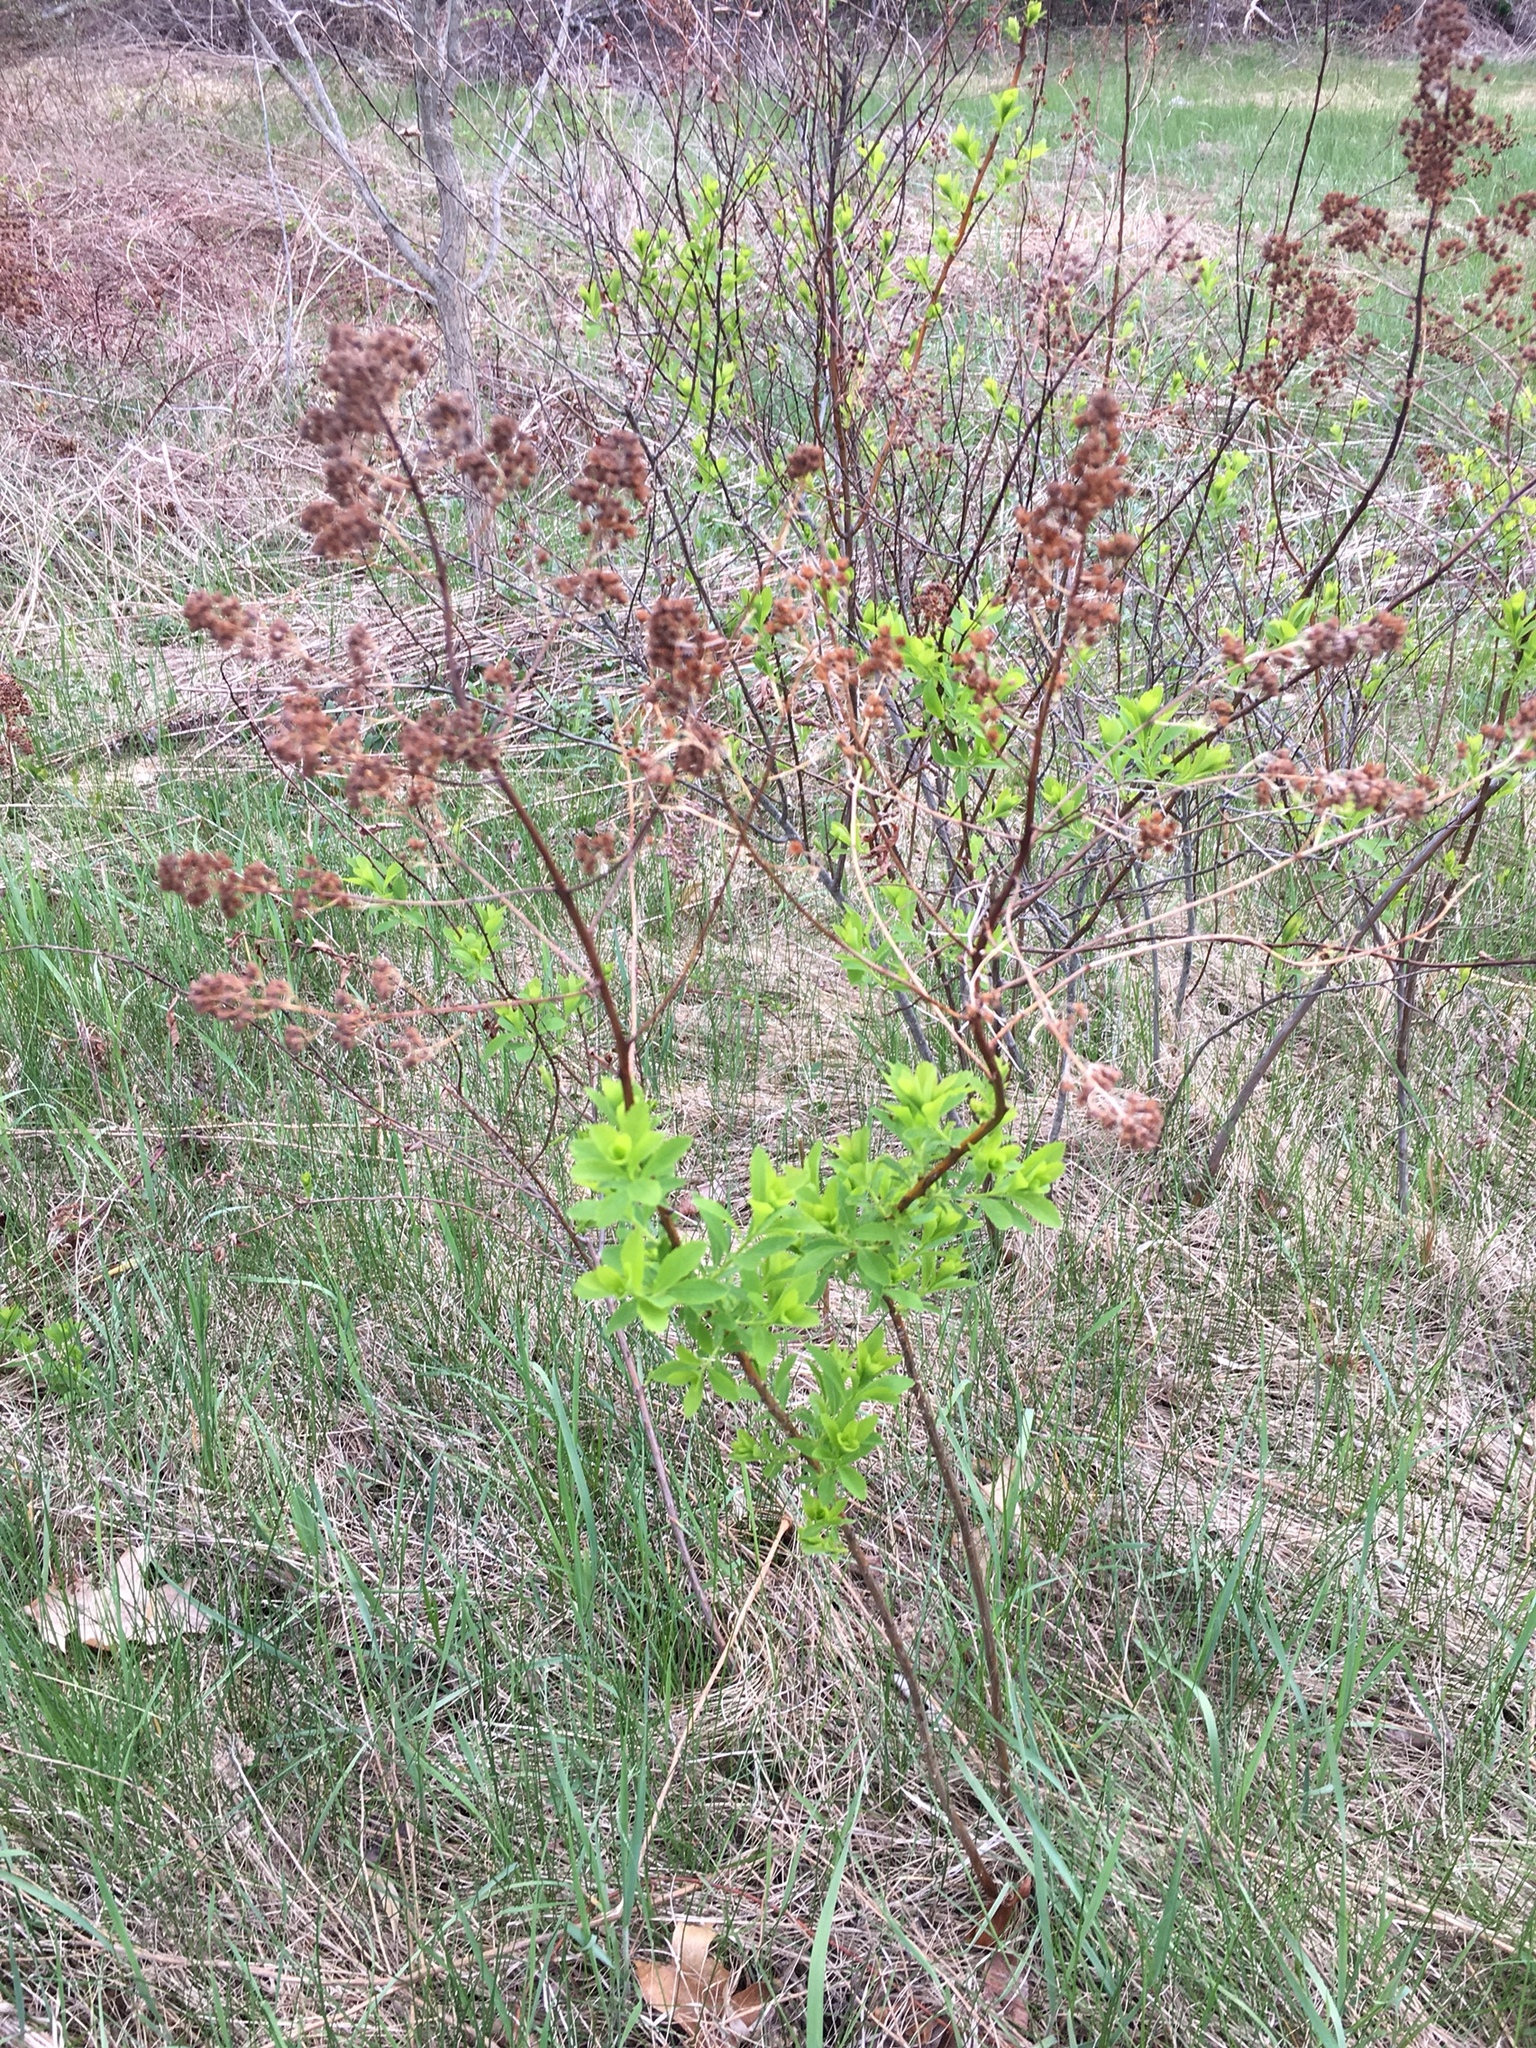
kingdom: Plantae
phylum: Tracheophyta
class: Magnoliopsida
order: Rosales
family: Rosaceae
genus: Spiraea
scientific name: Spiraea alba
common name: Pale bridewort
